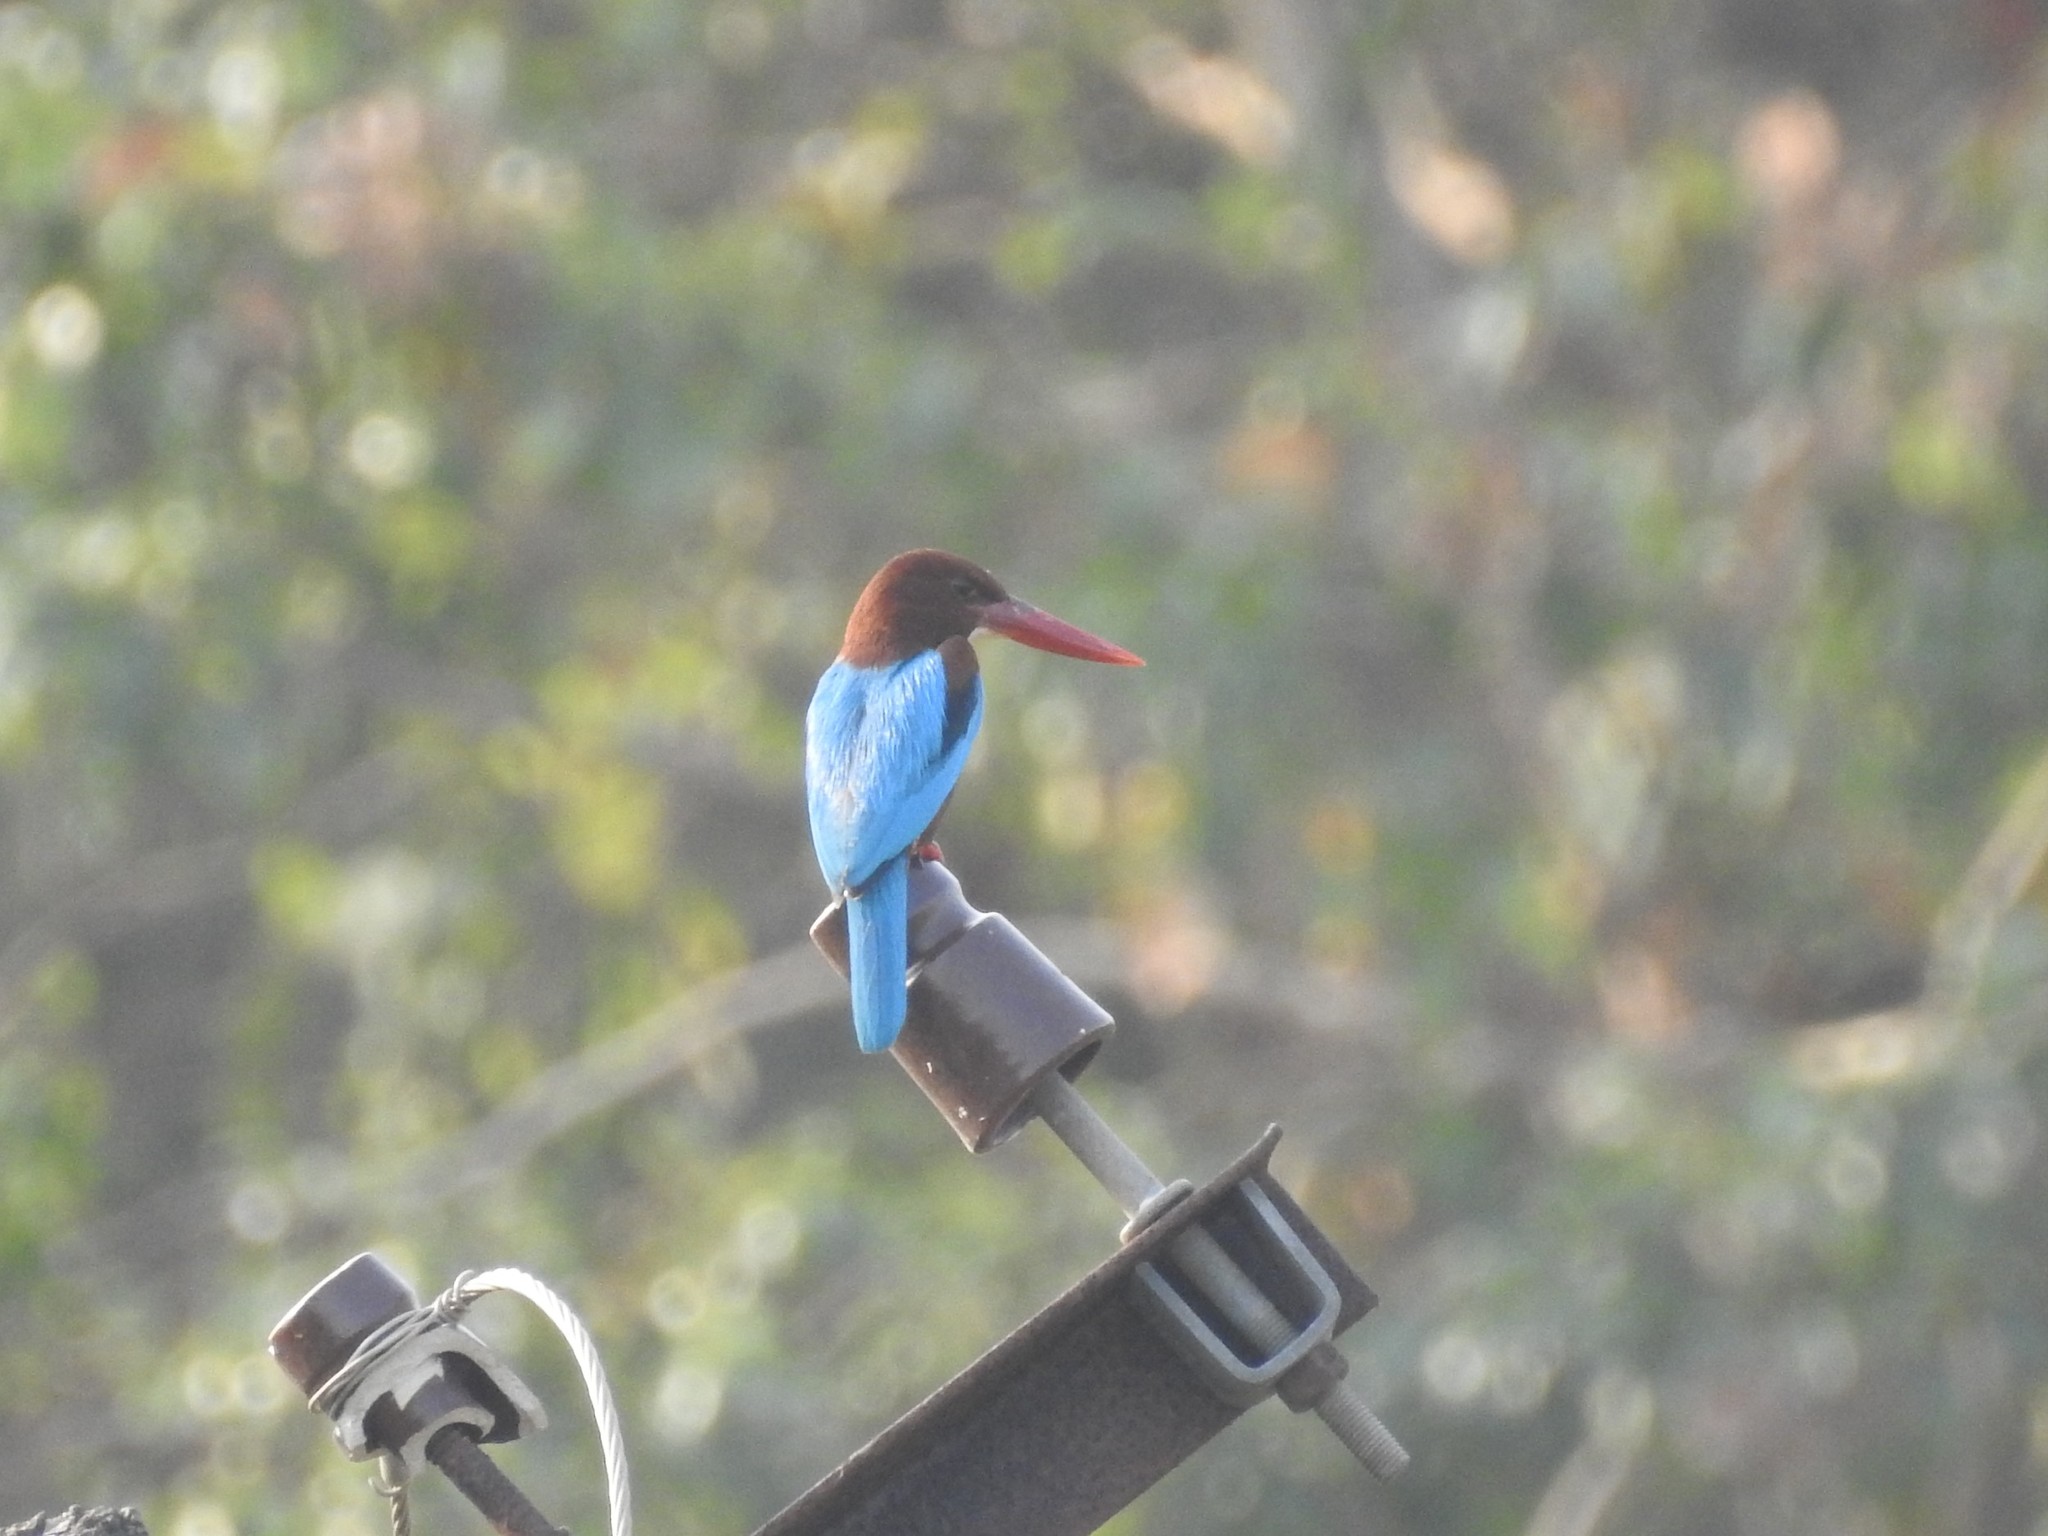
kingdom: Animalia
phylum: Chordata
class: Aves
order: Coraciiformes
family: Alcedinidae
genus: Halcyon
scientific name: Halcyon smyrnensis
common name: White-throated kingfisher
